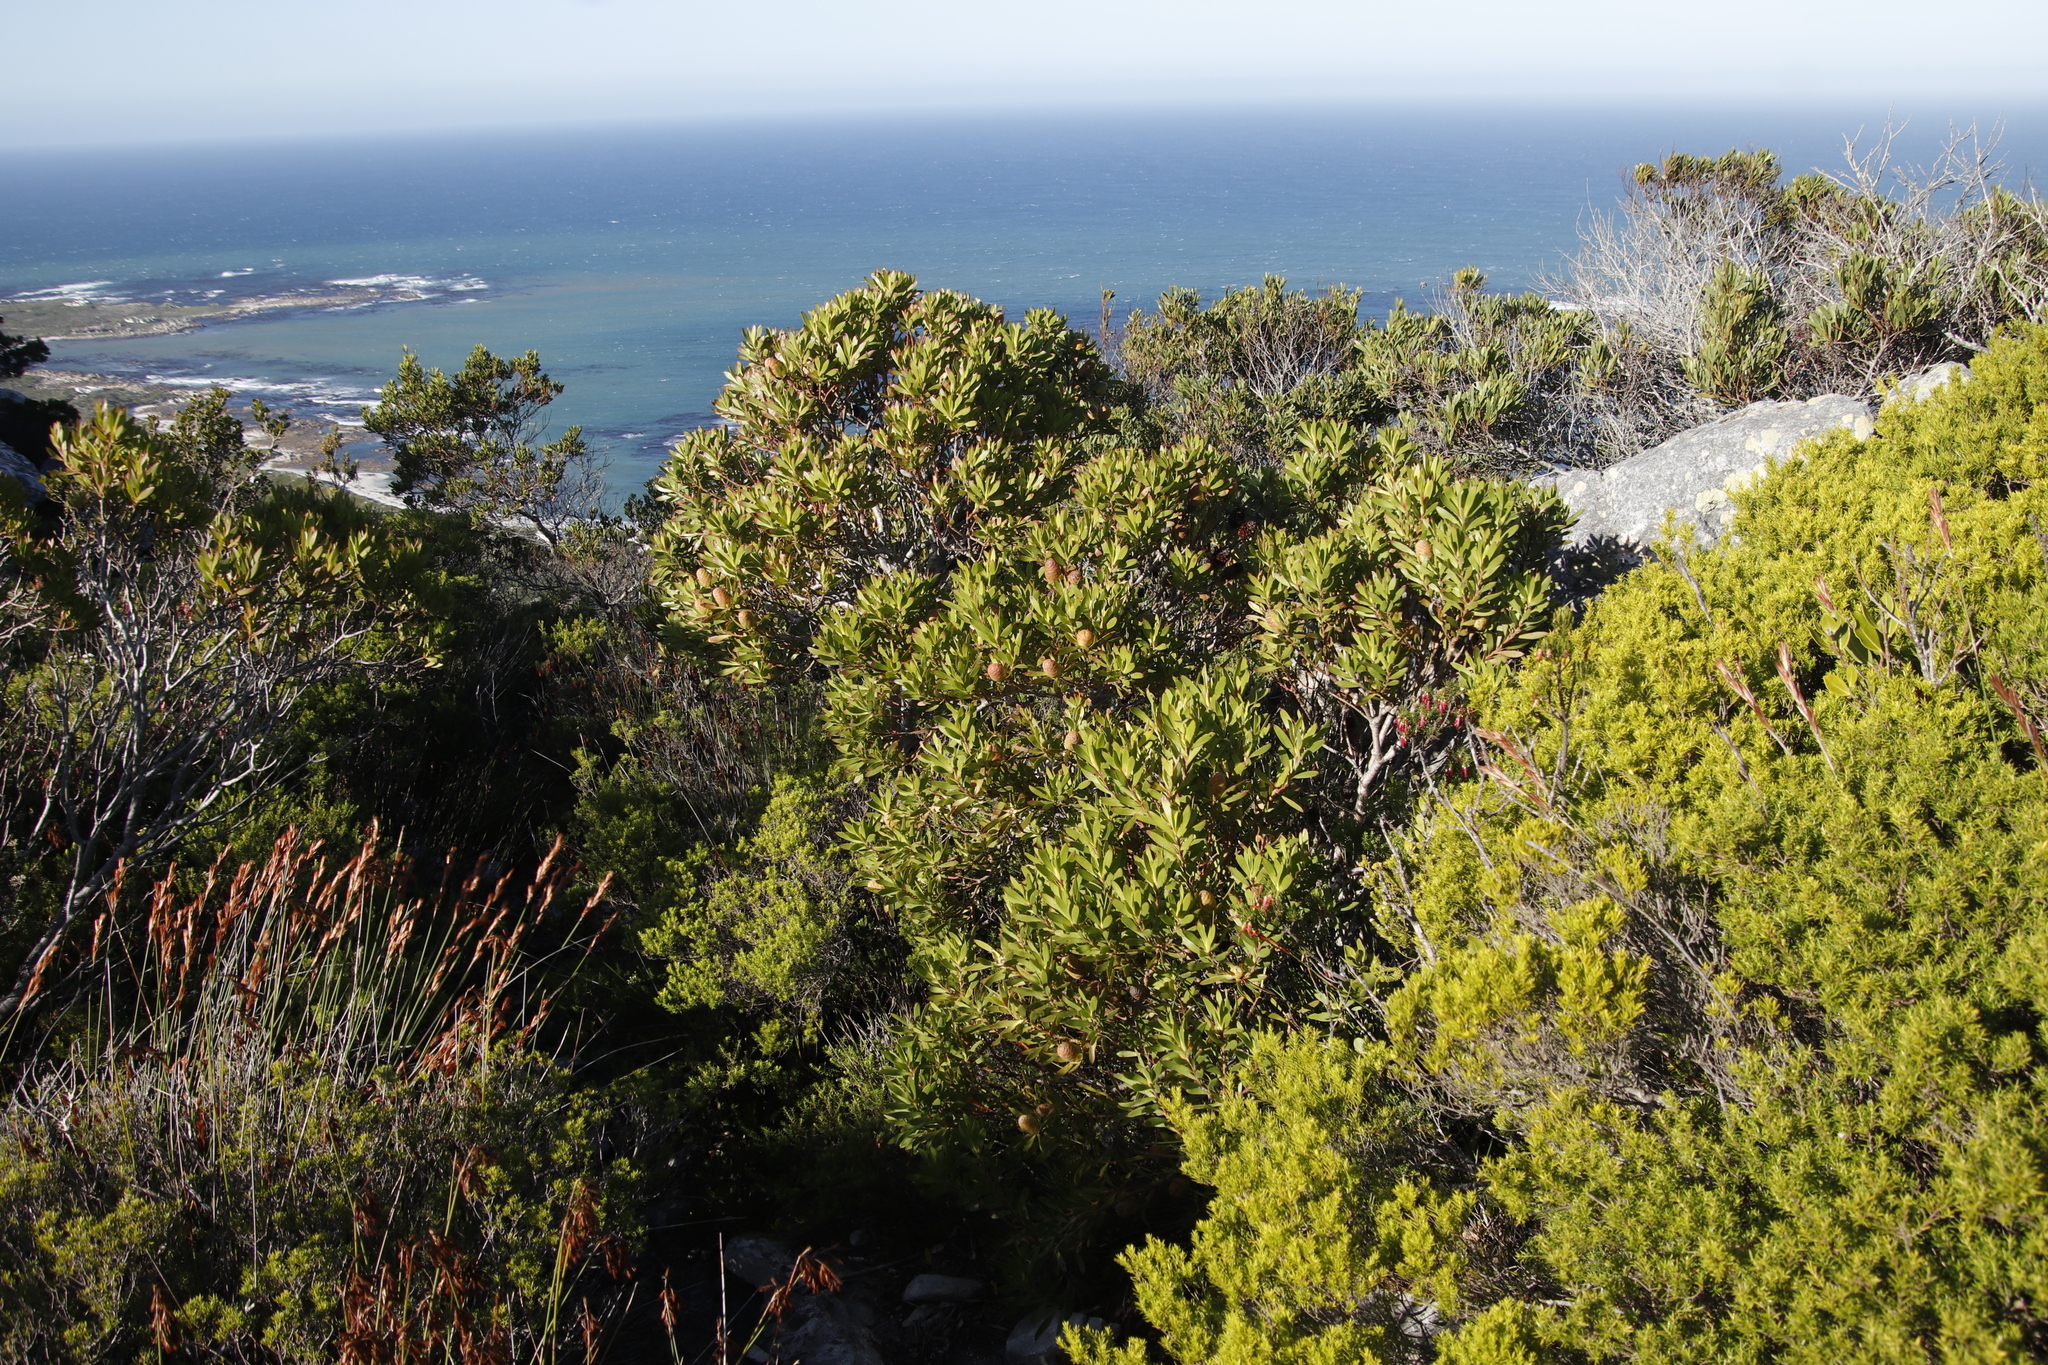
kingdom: Plantae
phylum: Tracheophyta
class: Magnoliopsida
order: Proteales
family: Proteaceae
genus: Leucadendron
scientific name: Leucadendron coniferum
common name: Dune conebush
